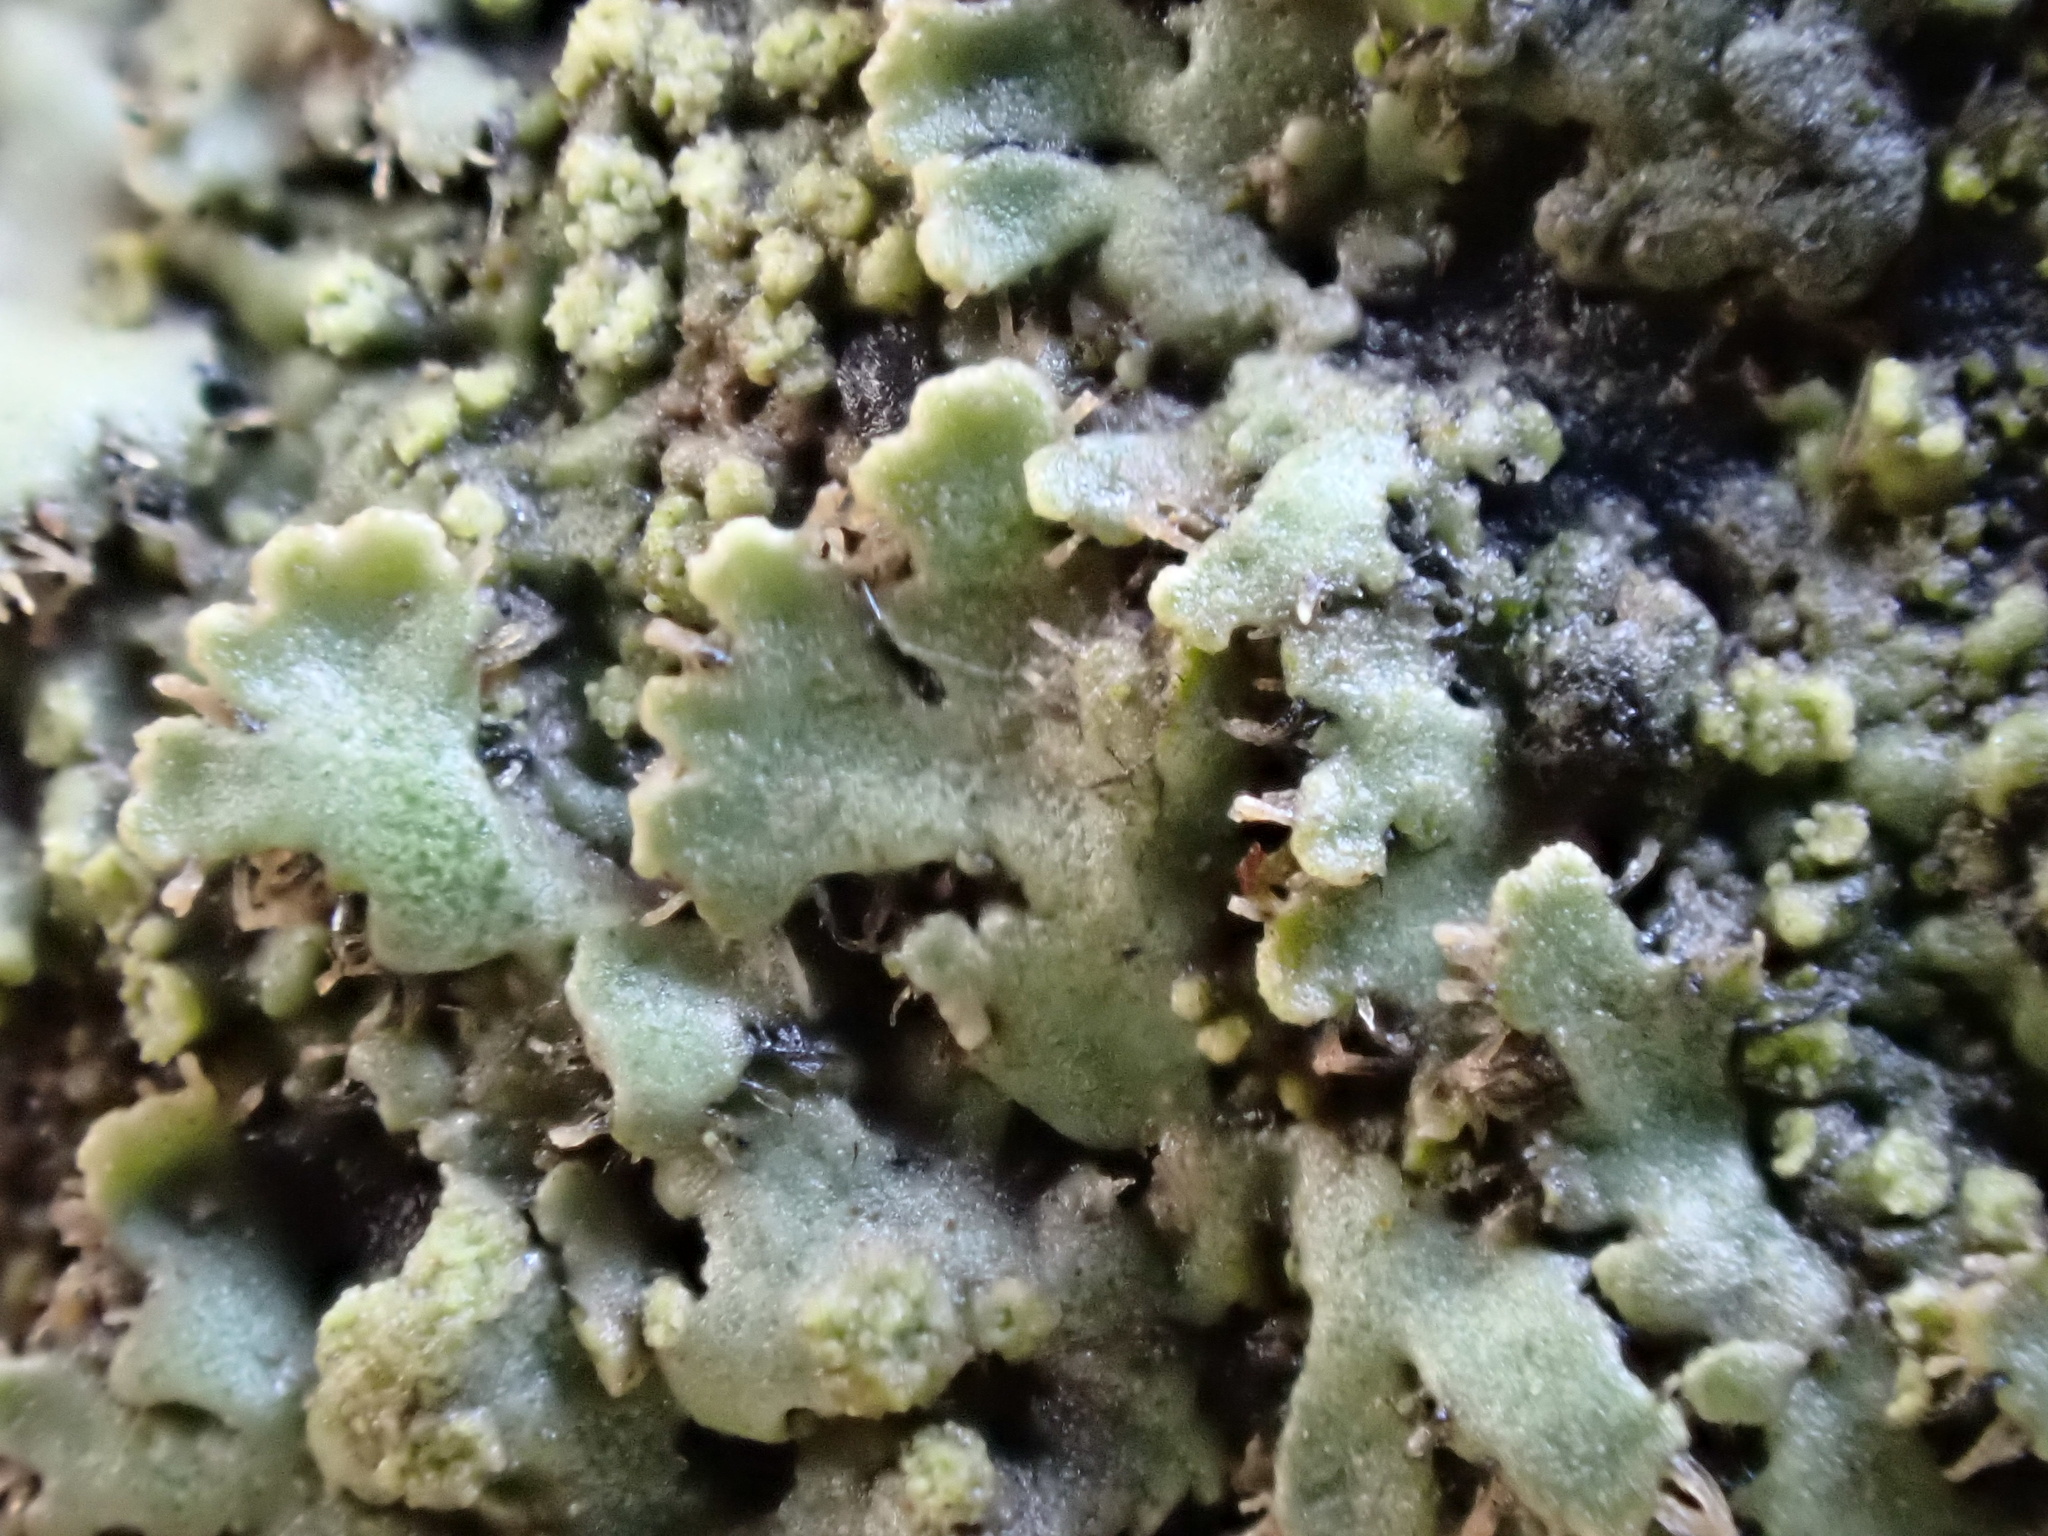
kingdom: Fungi
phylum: Ascomycota
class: Lecanoromycetes
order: Caliciales
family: Physciaceae
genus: Phaeophyscia
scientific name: Phaeophyscia orbicularis
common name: Mealy shadow lichen
